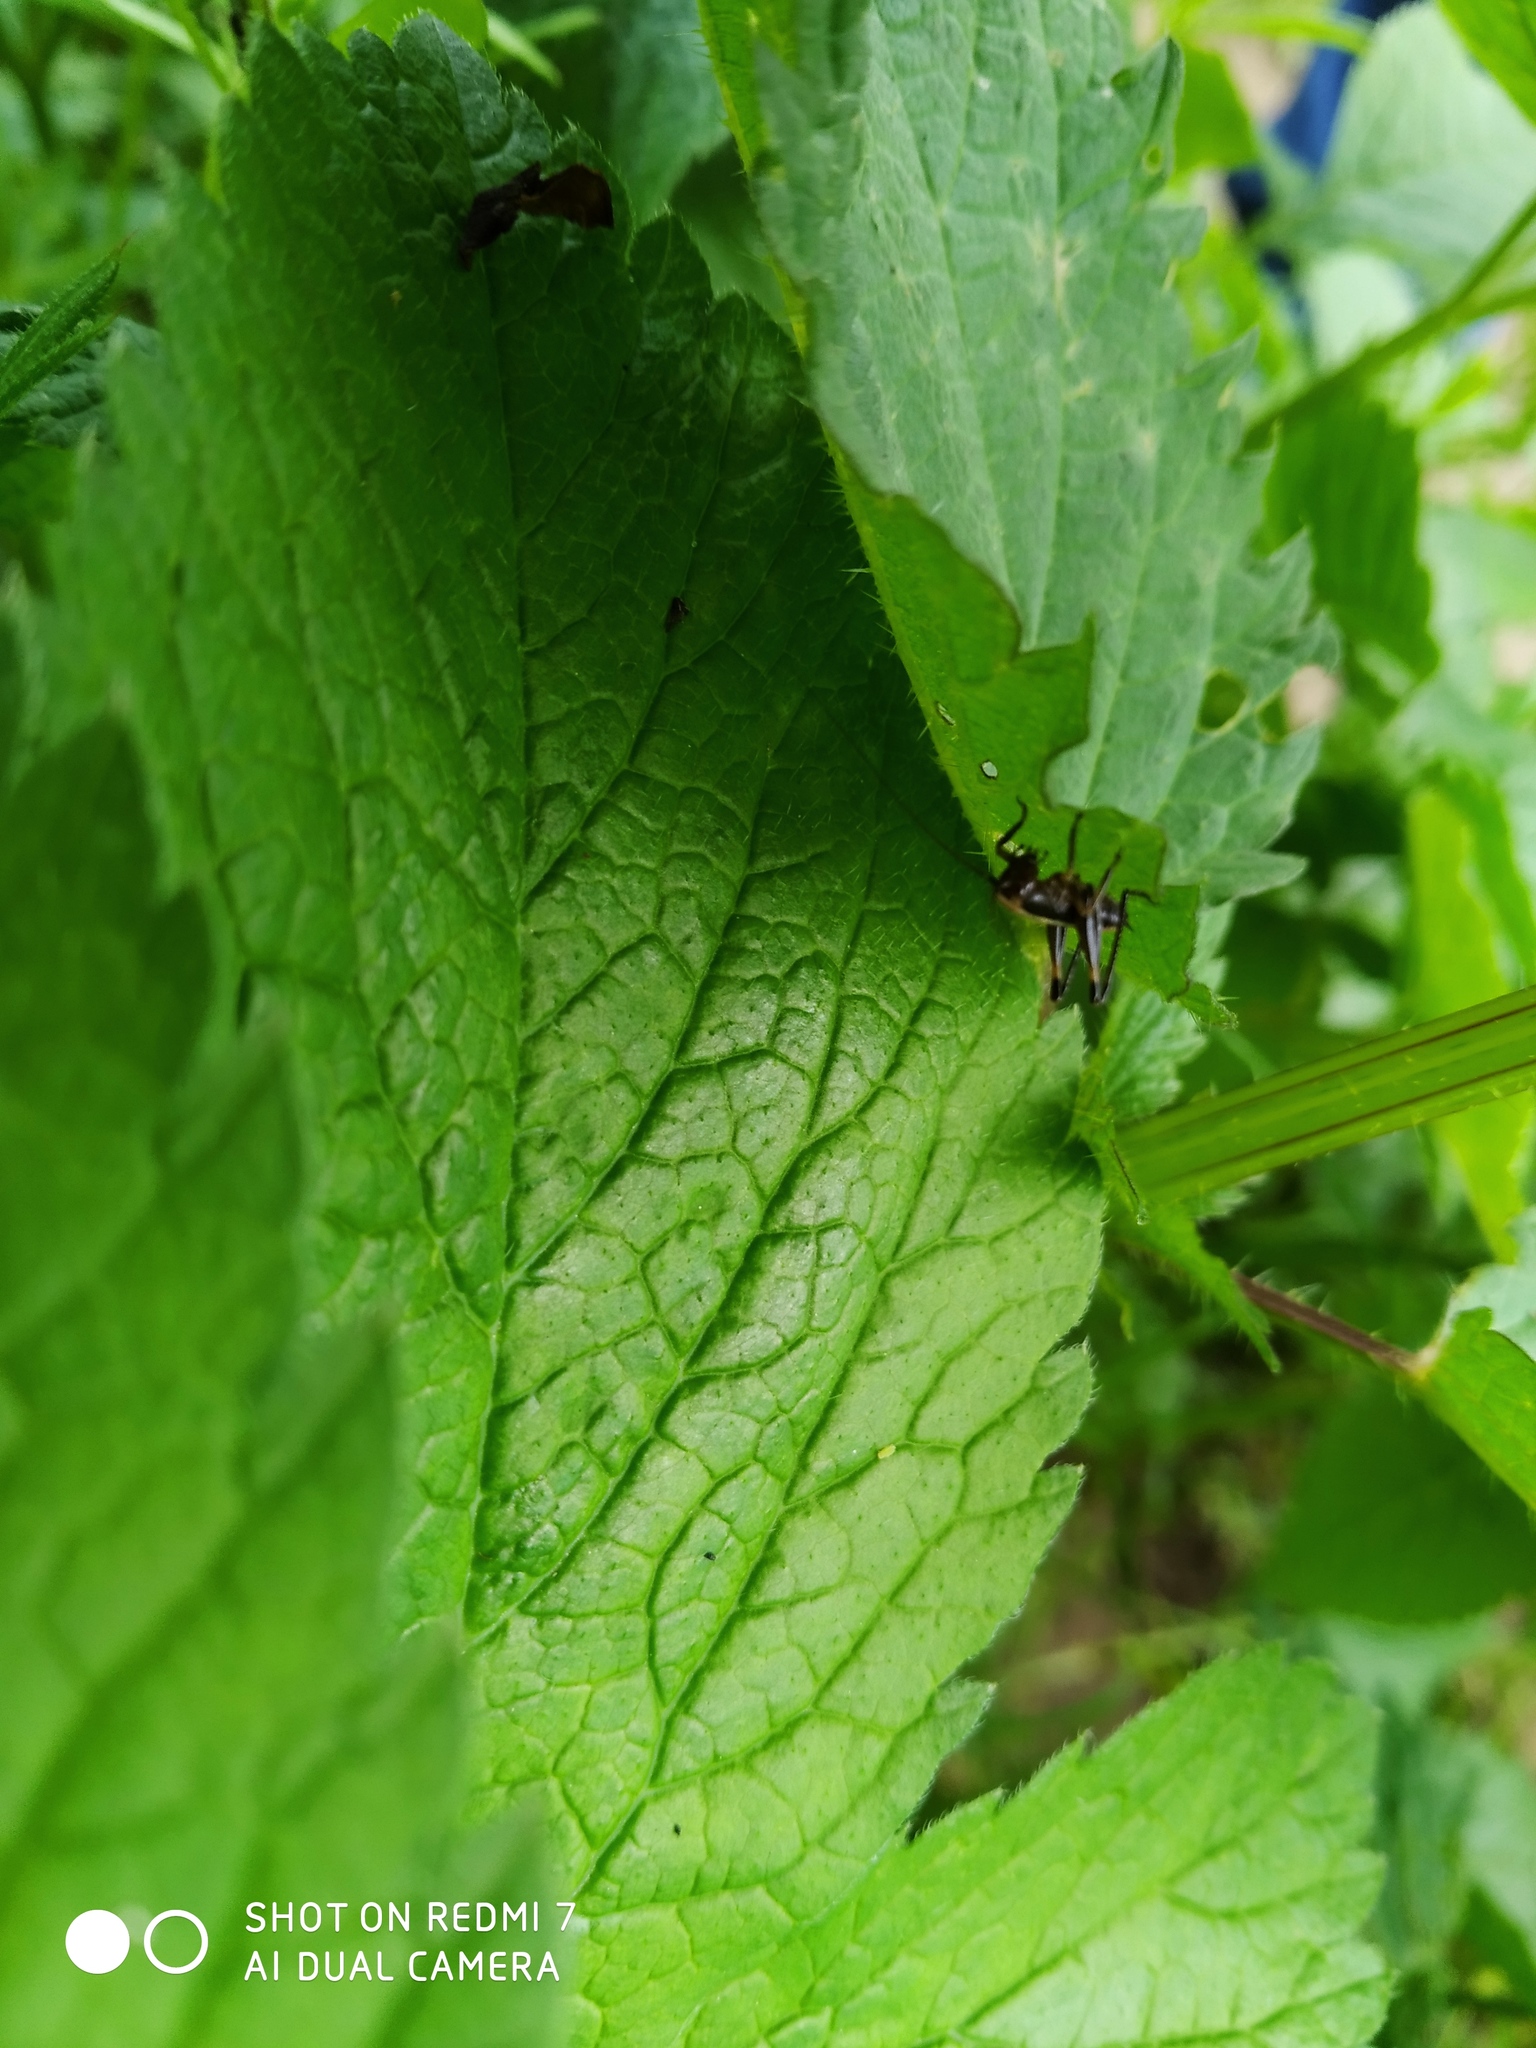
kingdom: Animalia
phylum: Arthropoda
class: Insecta
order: Orthoptera
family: Tettigoniidae
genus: Pholidoptera
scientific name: Pholidoptera griseoaptera
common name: Dark bush-cricket
